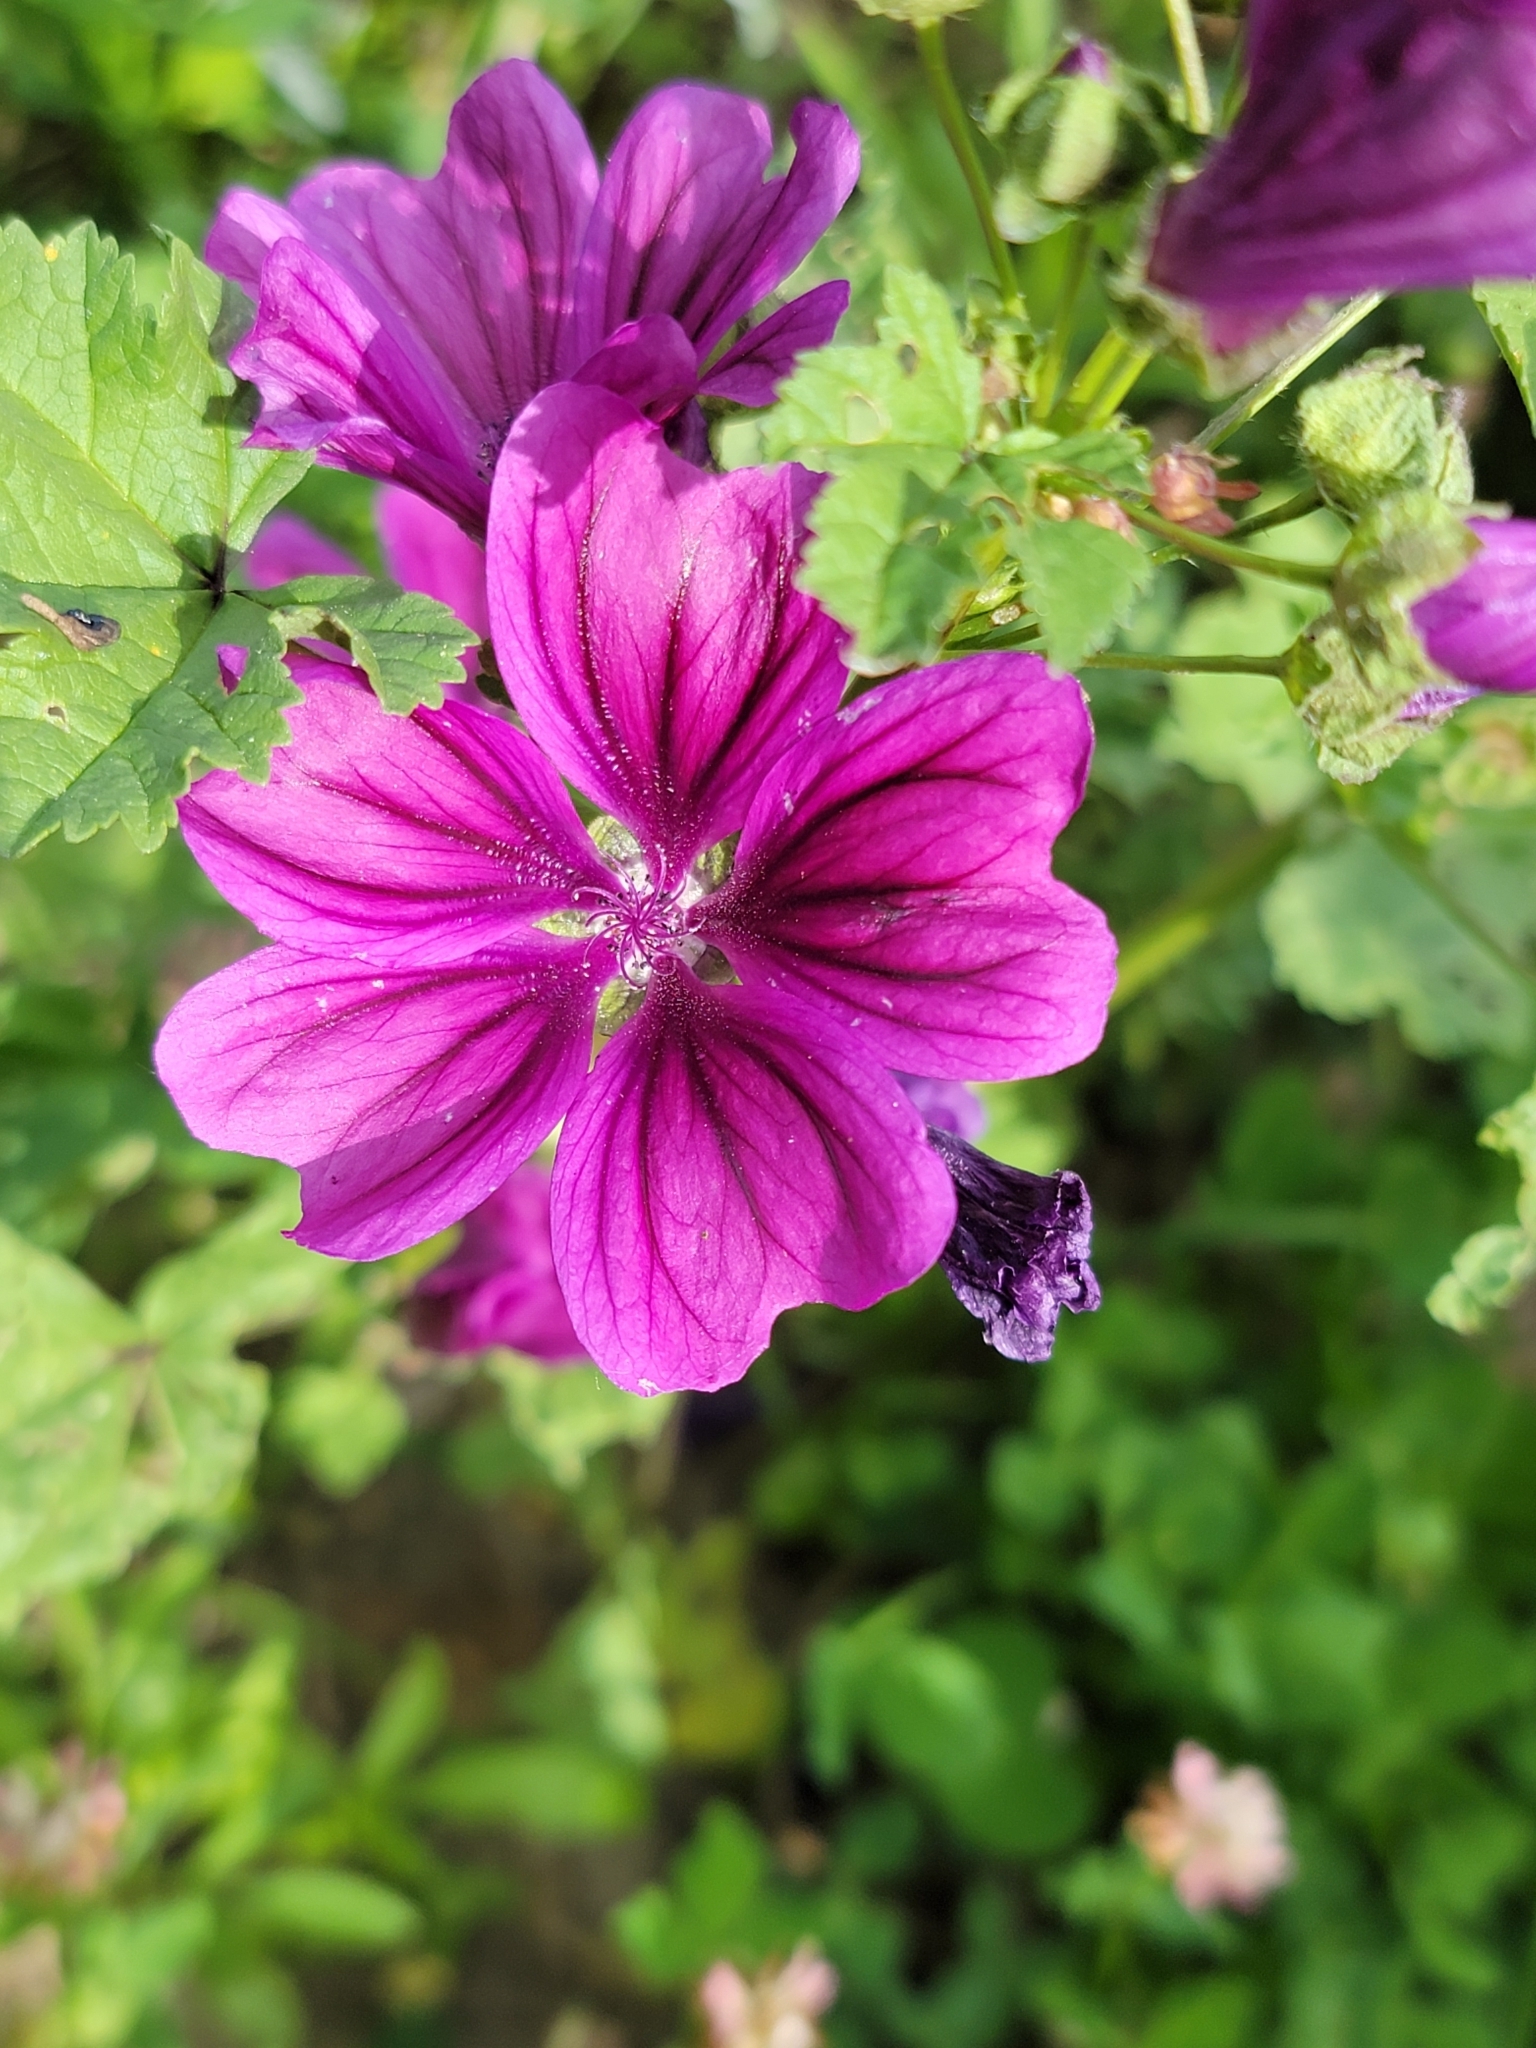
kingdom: Plantae
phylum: Tracheophyta
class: Magnoliopsida
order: Malvales
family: Malvaceae
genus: Malva
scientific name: Malva sylvestris
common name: Common mallow
